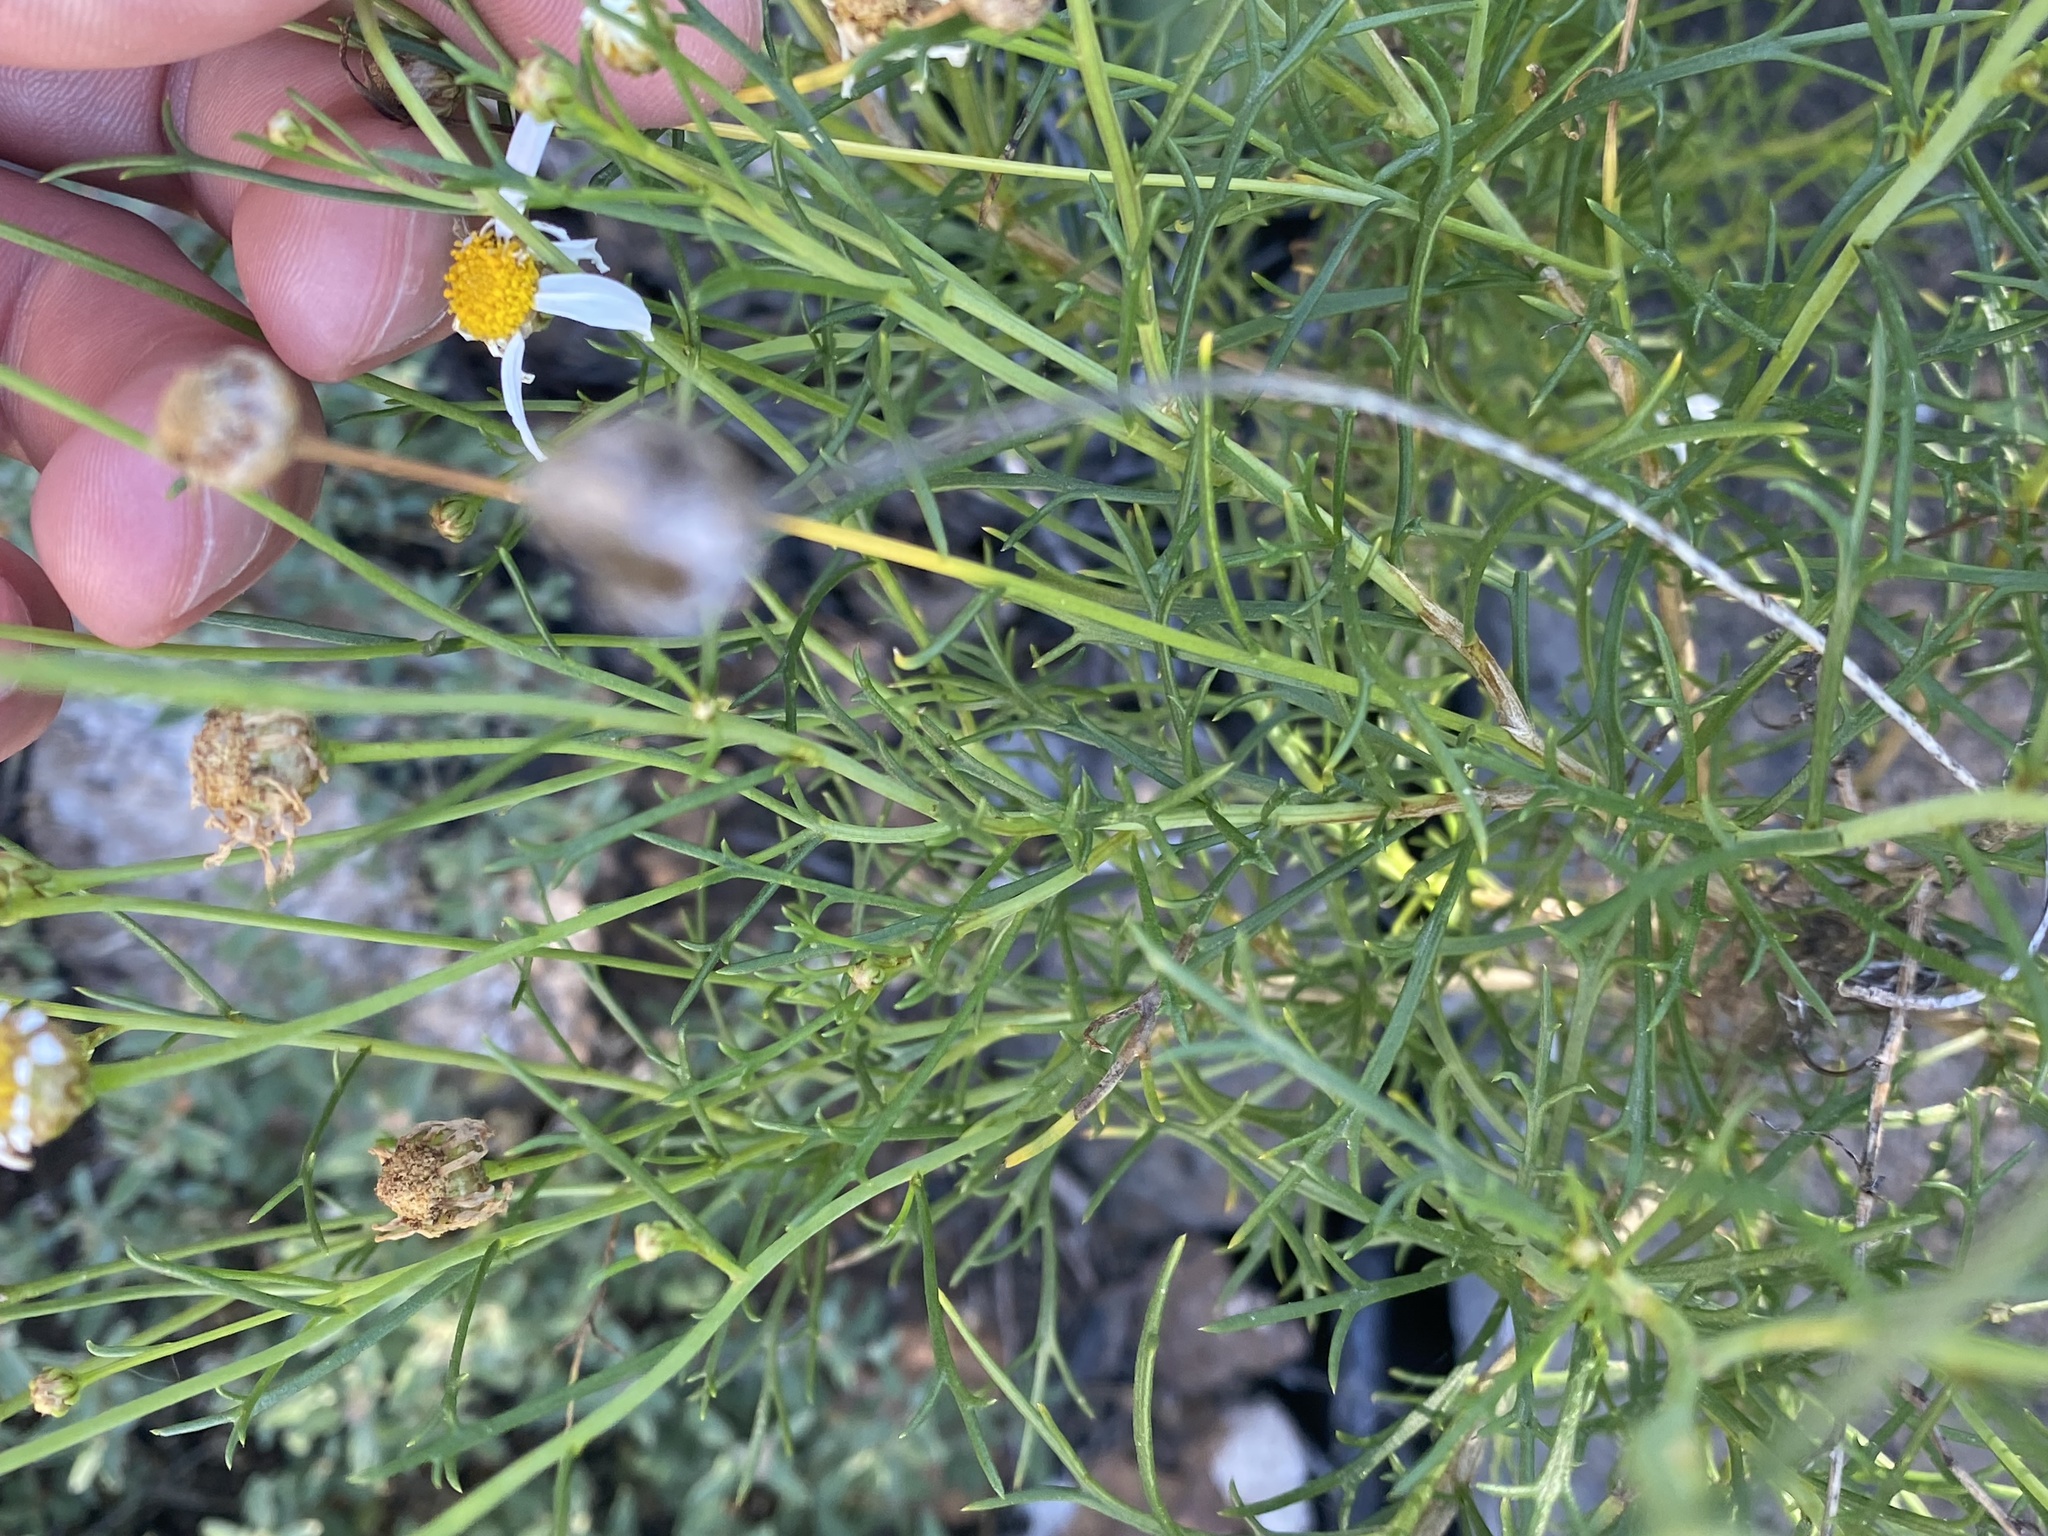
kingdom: Plantae
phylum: Tracheophyta
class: Magnoliopsida
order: Asterales
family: Asteraceae
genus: Argyranthemum
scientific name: Argyranthemum gracile
